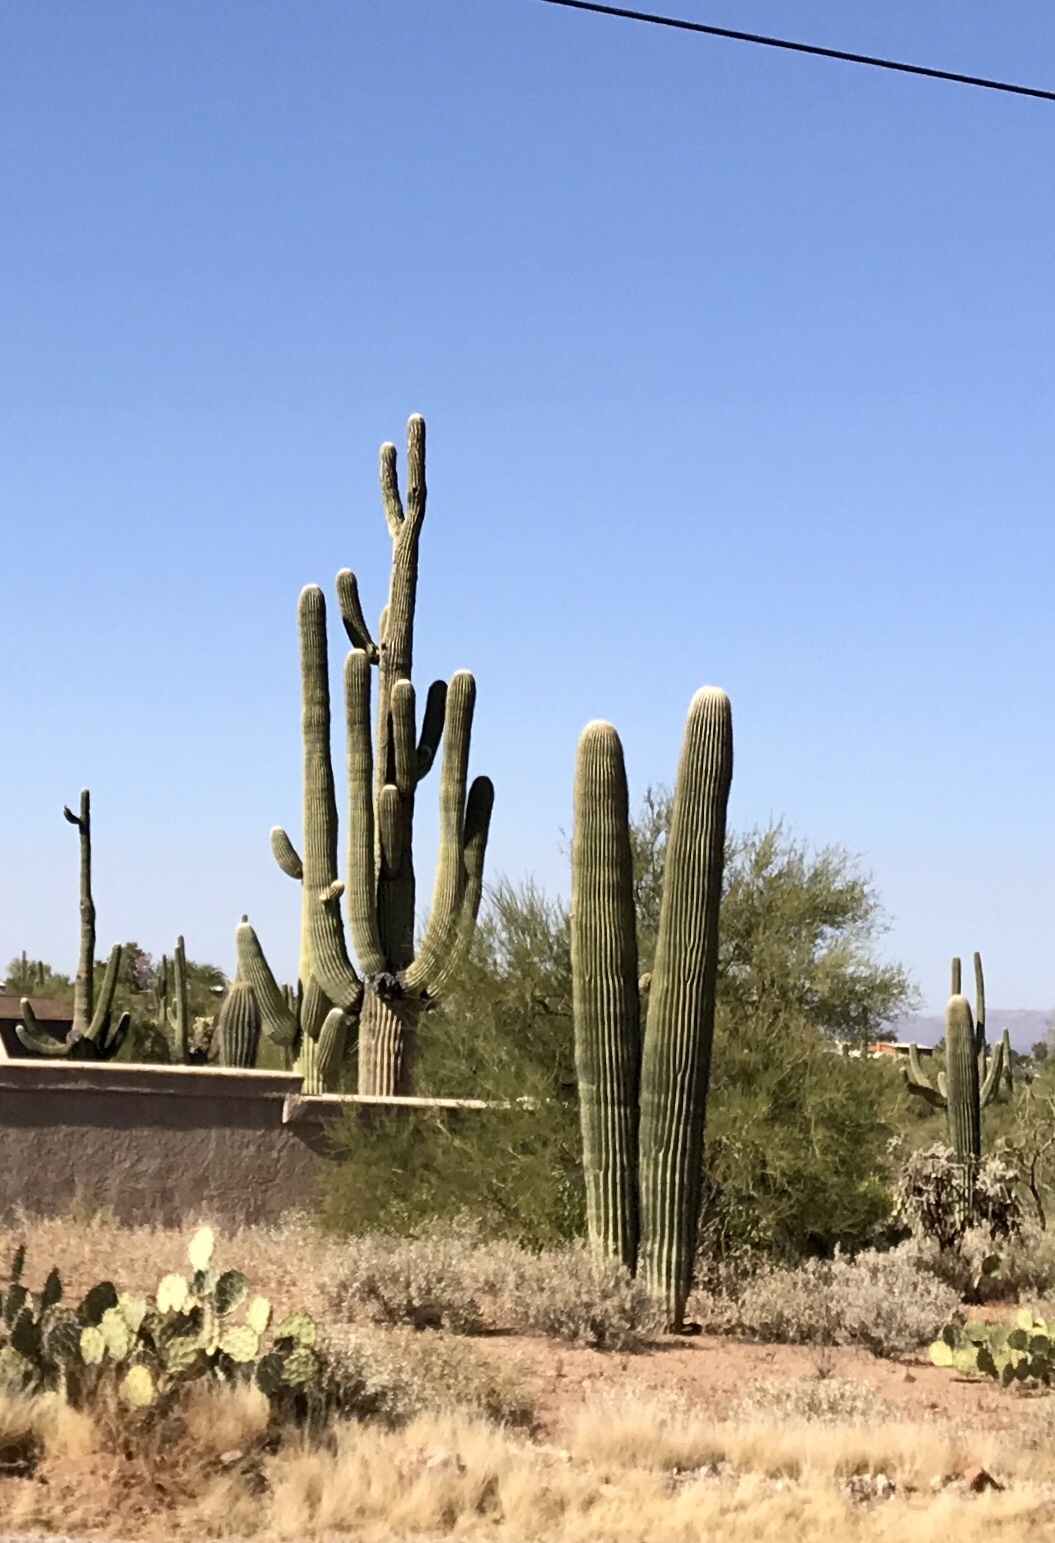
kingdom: Plantae
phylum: Tracheophyta
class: Magnoliopsida
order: Caryophyllales
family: Cactaceae
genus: Carnegiea
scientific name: Carnegiea gigantea
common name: Saguaro
